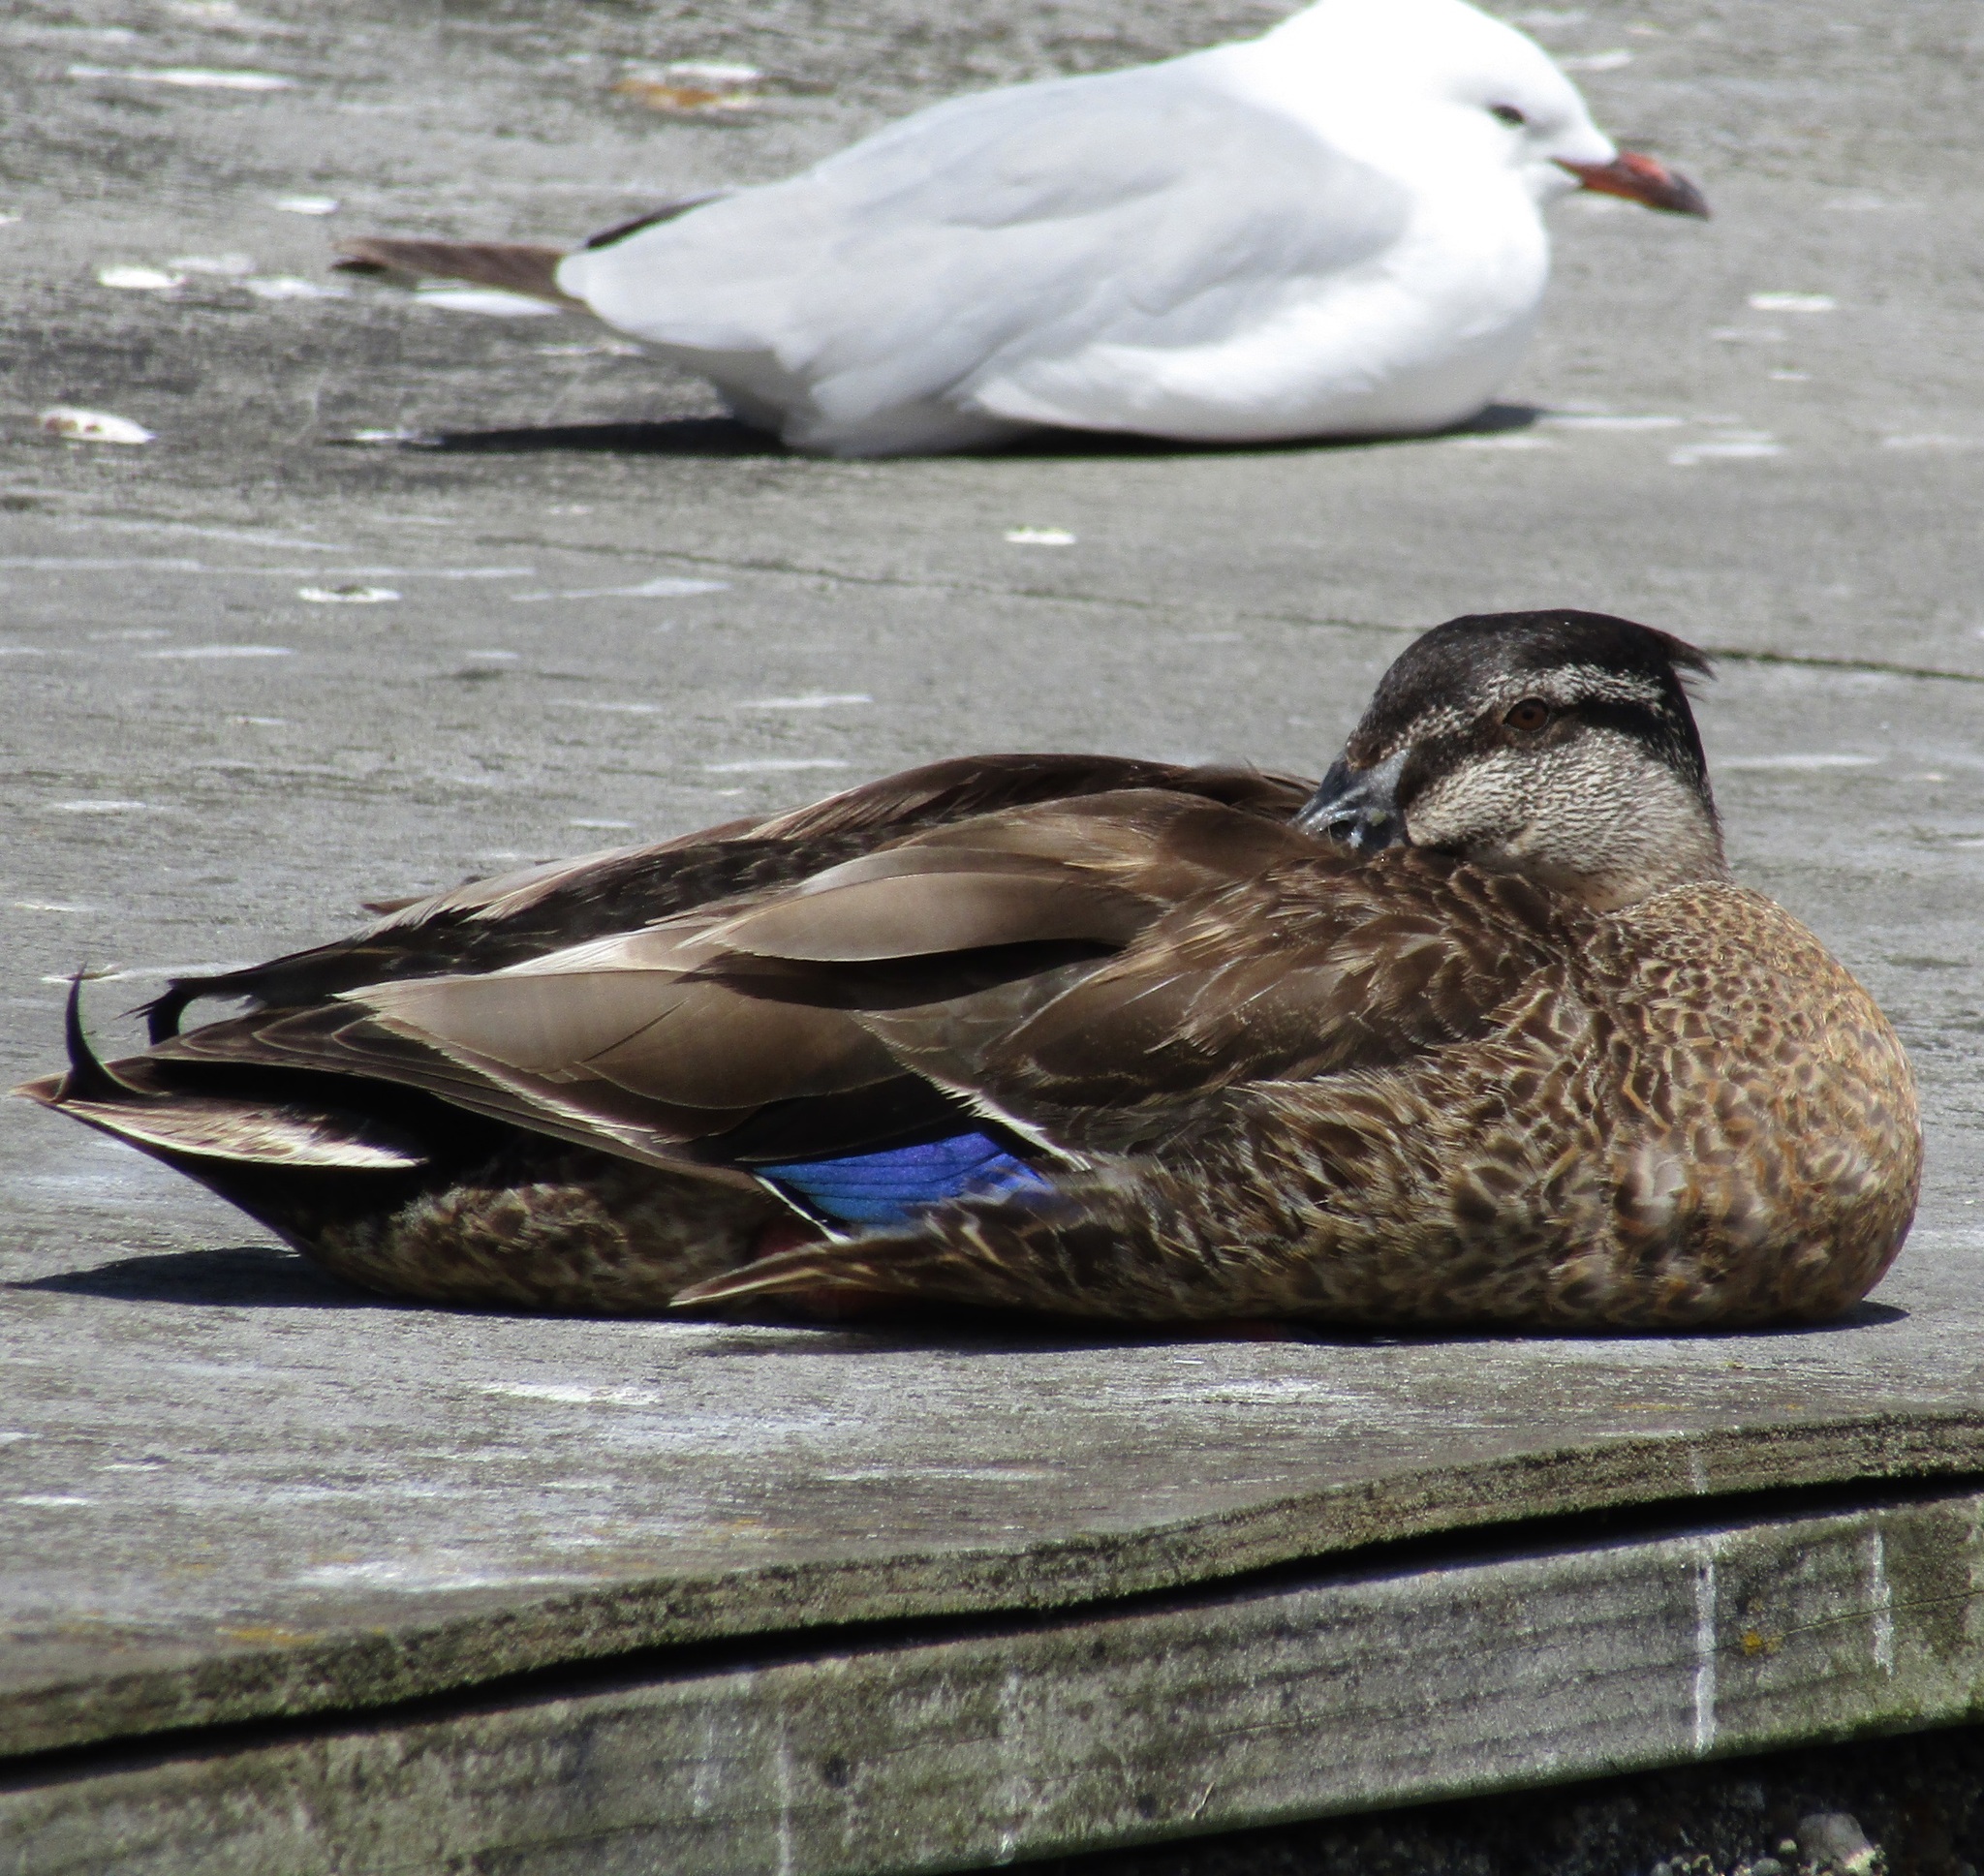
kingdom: Animalia
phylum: Chordata
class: Aves
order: Anseriformes
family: Anatidae
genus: Anas
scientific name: Anas
